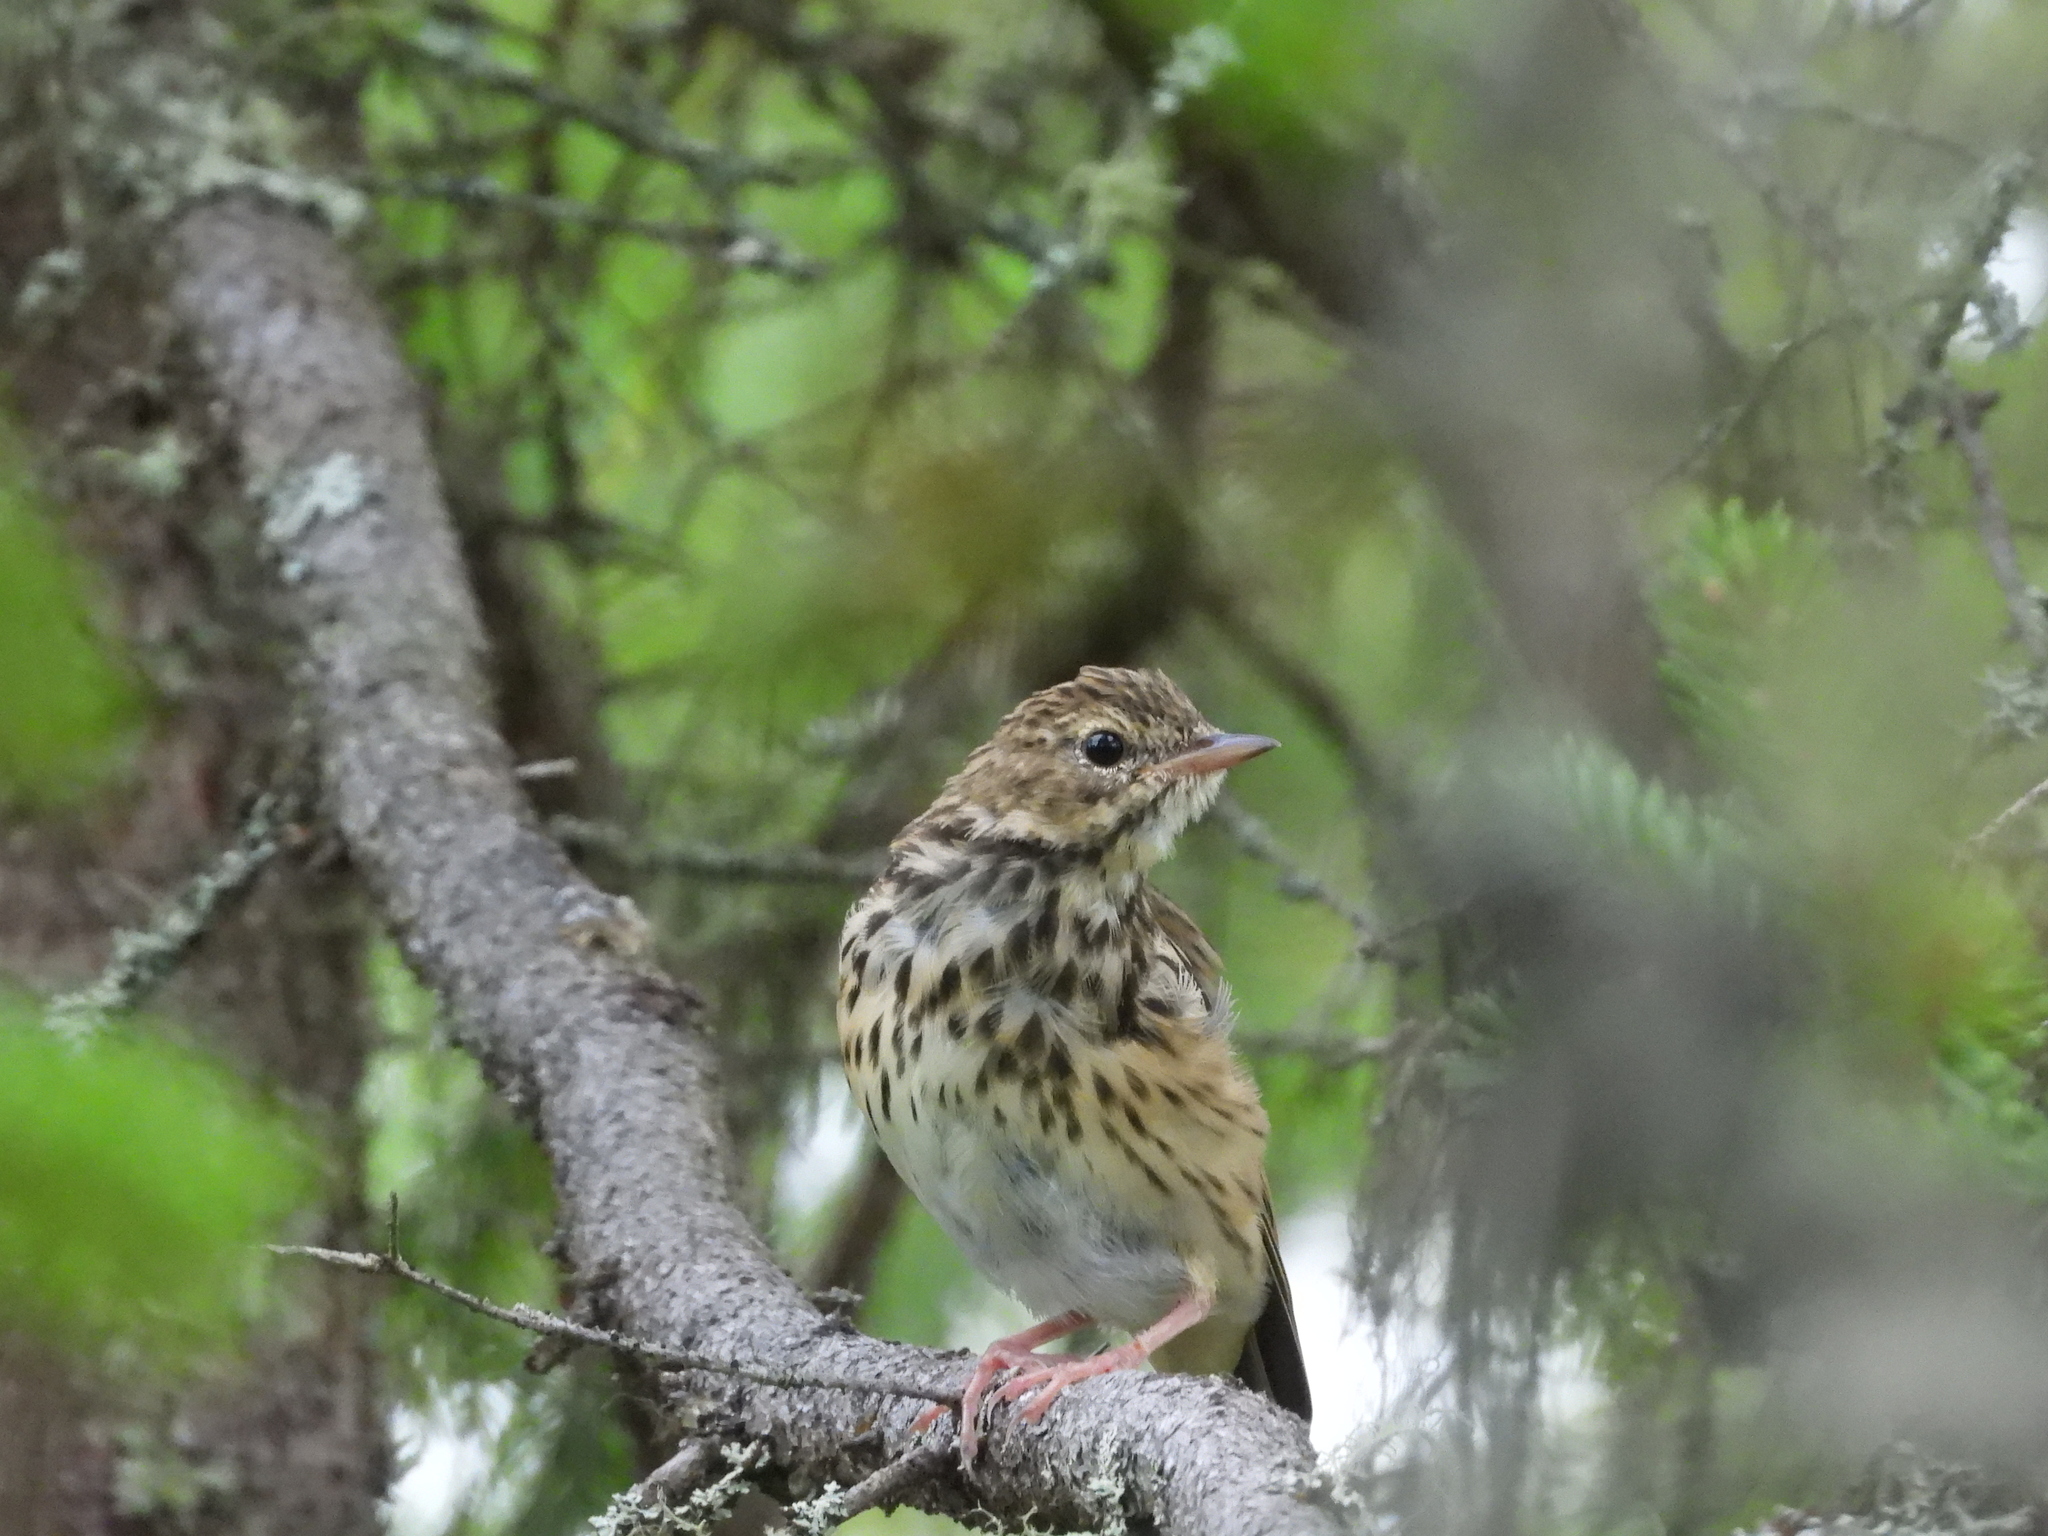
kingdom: Animalia
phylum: Chordata
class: Aves
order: Passeriformes
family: Motacillidae
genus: Anthus
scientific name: Anthus trivialis
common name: Tree pipit
